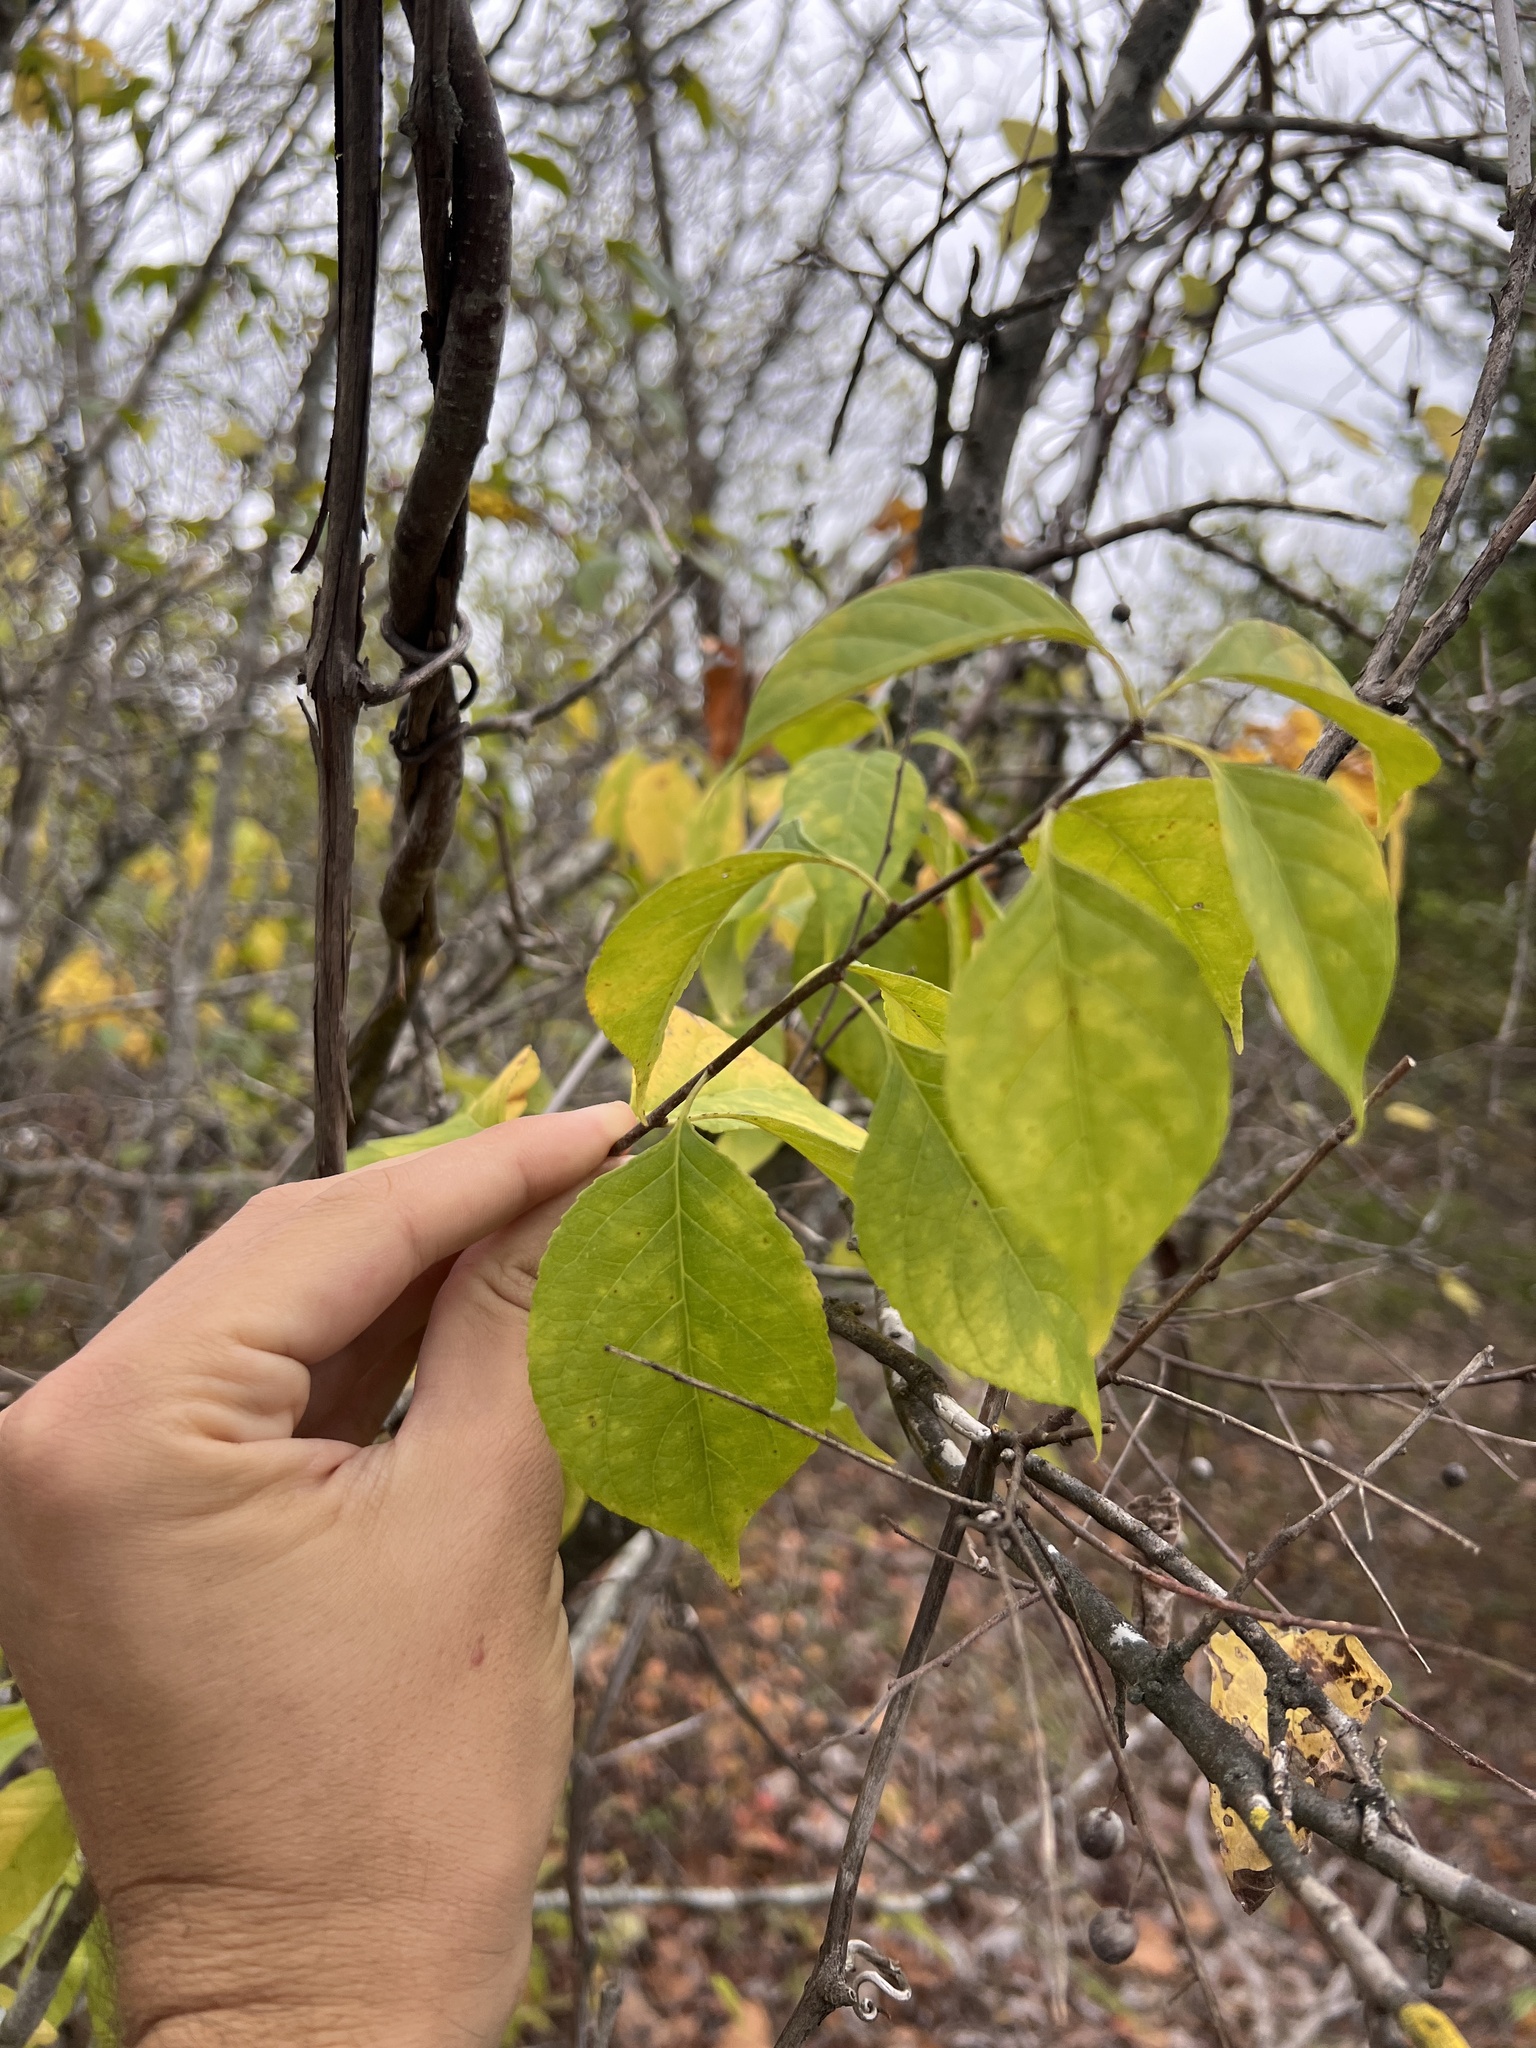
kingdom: Plantae
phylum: Tracheophyta
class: Magnoliopsida
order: Celastrales
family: Celastraceae
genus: Celastrus
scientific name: Celastrus scandens
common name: American bittersweet
